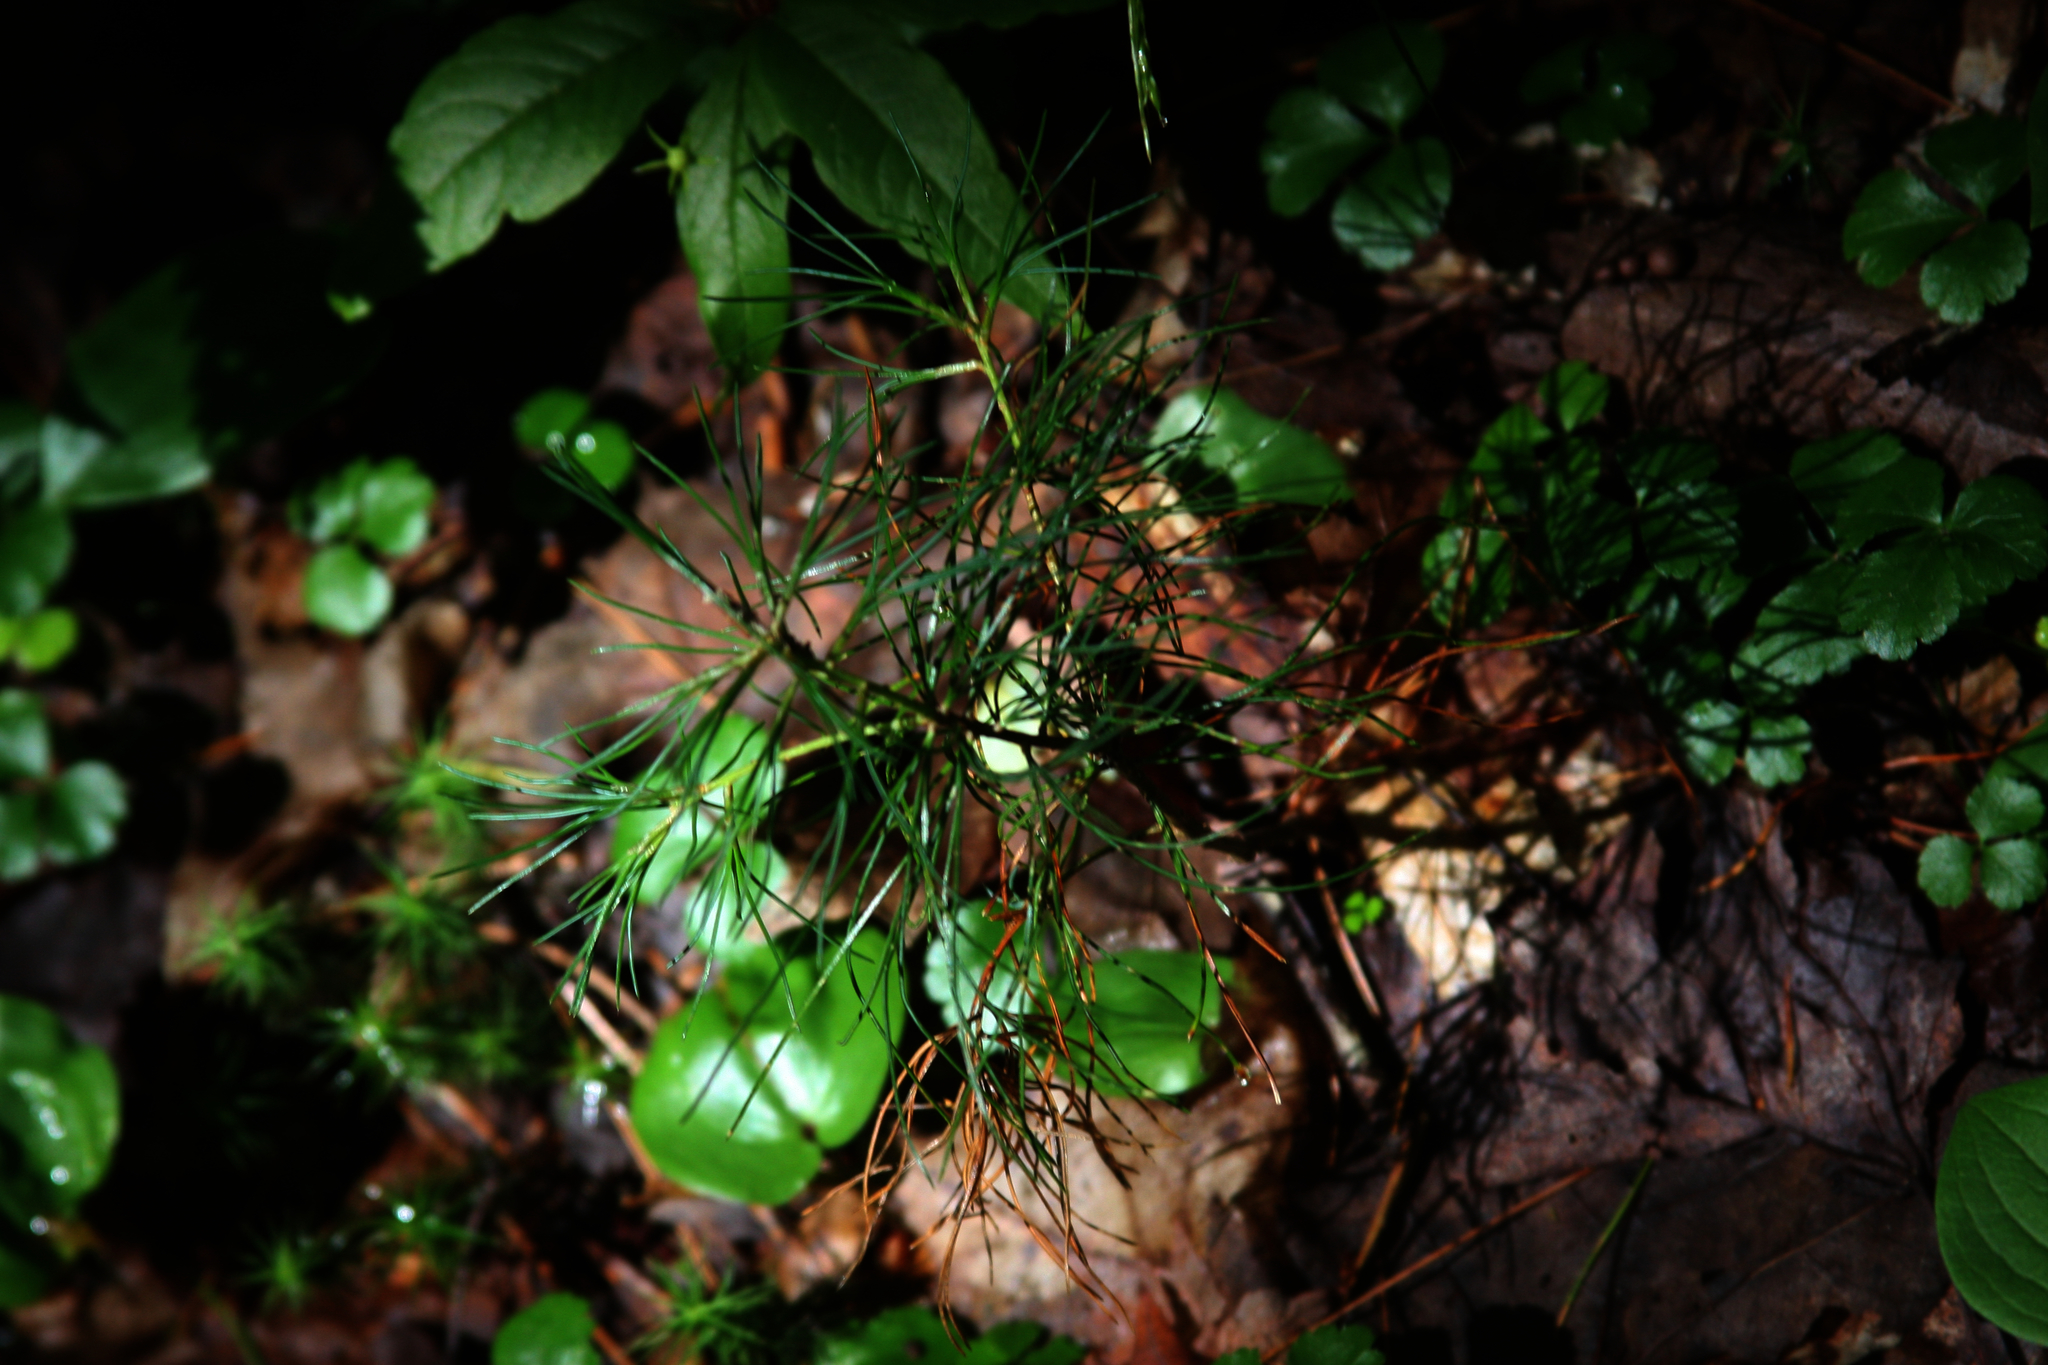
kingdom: Plantae
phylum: Tracheophyta
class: Pinopsida
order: Pinales
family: Pinaceae
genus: Pinus
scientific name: Pinus strobus
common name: Weymouth pine
